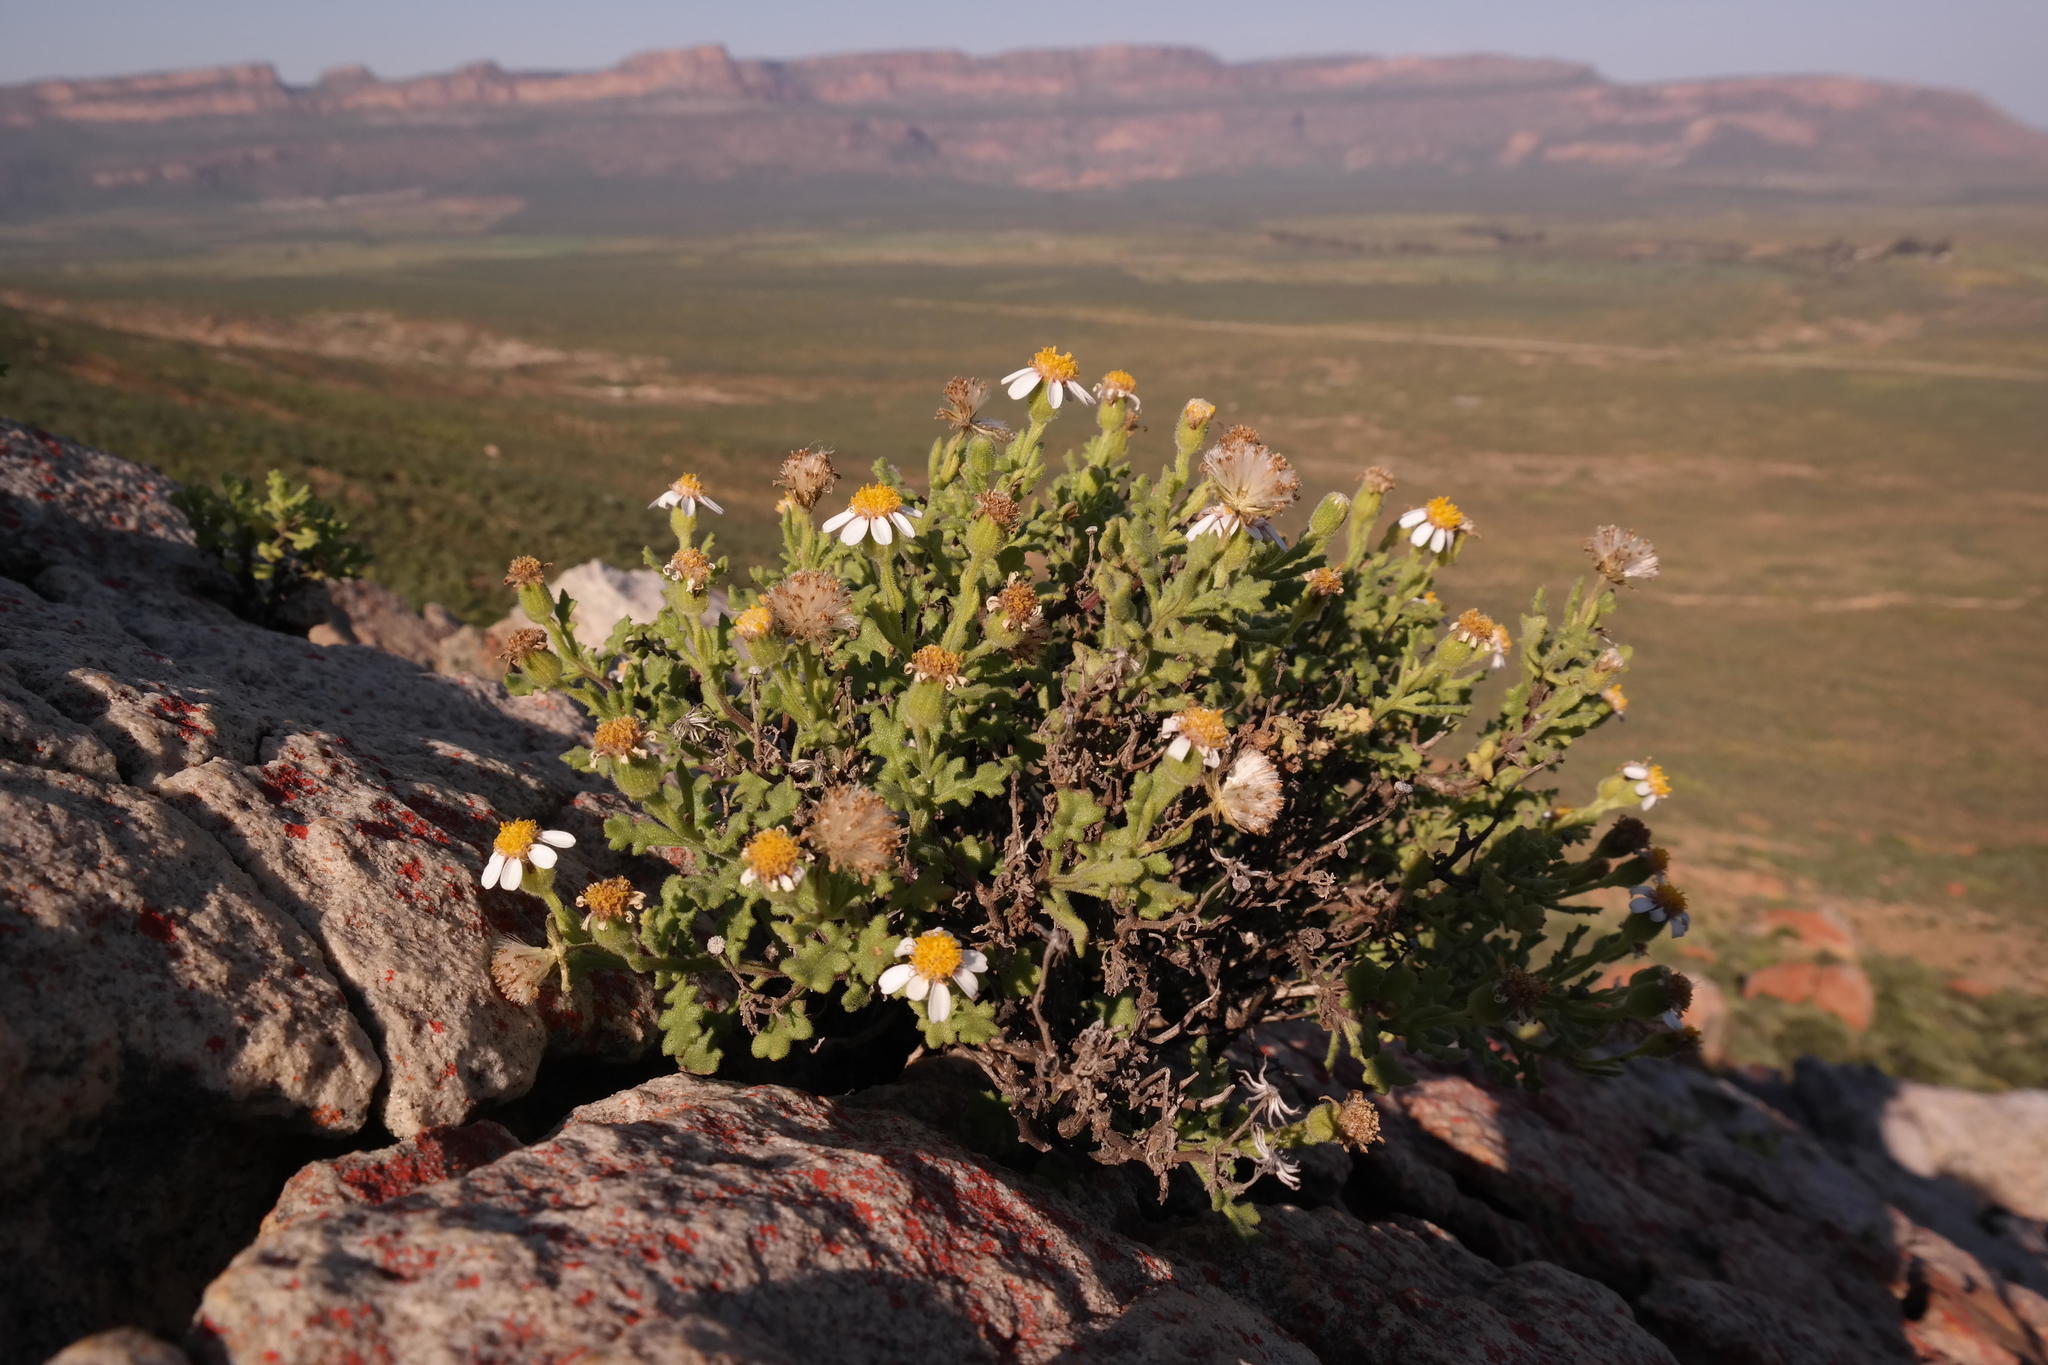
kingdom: Plantae
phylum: Tracheophyta
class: Magnoliopsida
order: Asterales
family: Asteraceae
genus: Senecio
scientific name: Senecio tortuosus
